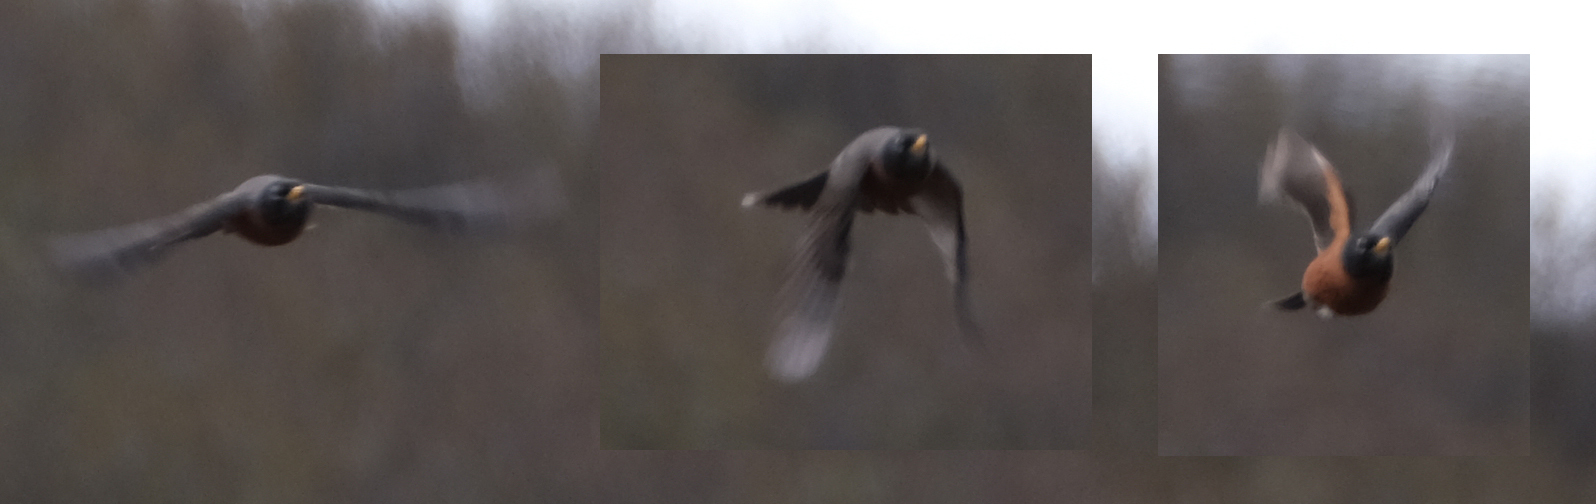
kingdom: Animalia
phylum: Chordata
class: Aves
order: Passeriformes
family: Turdidae
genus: Turdus
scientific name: Turdus migratorius
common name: American robin
